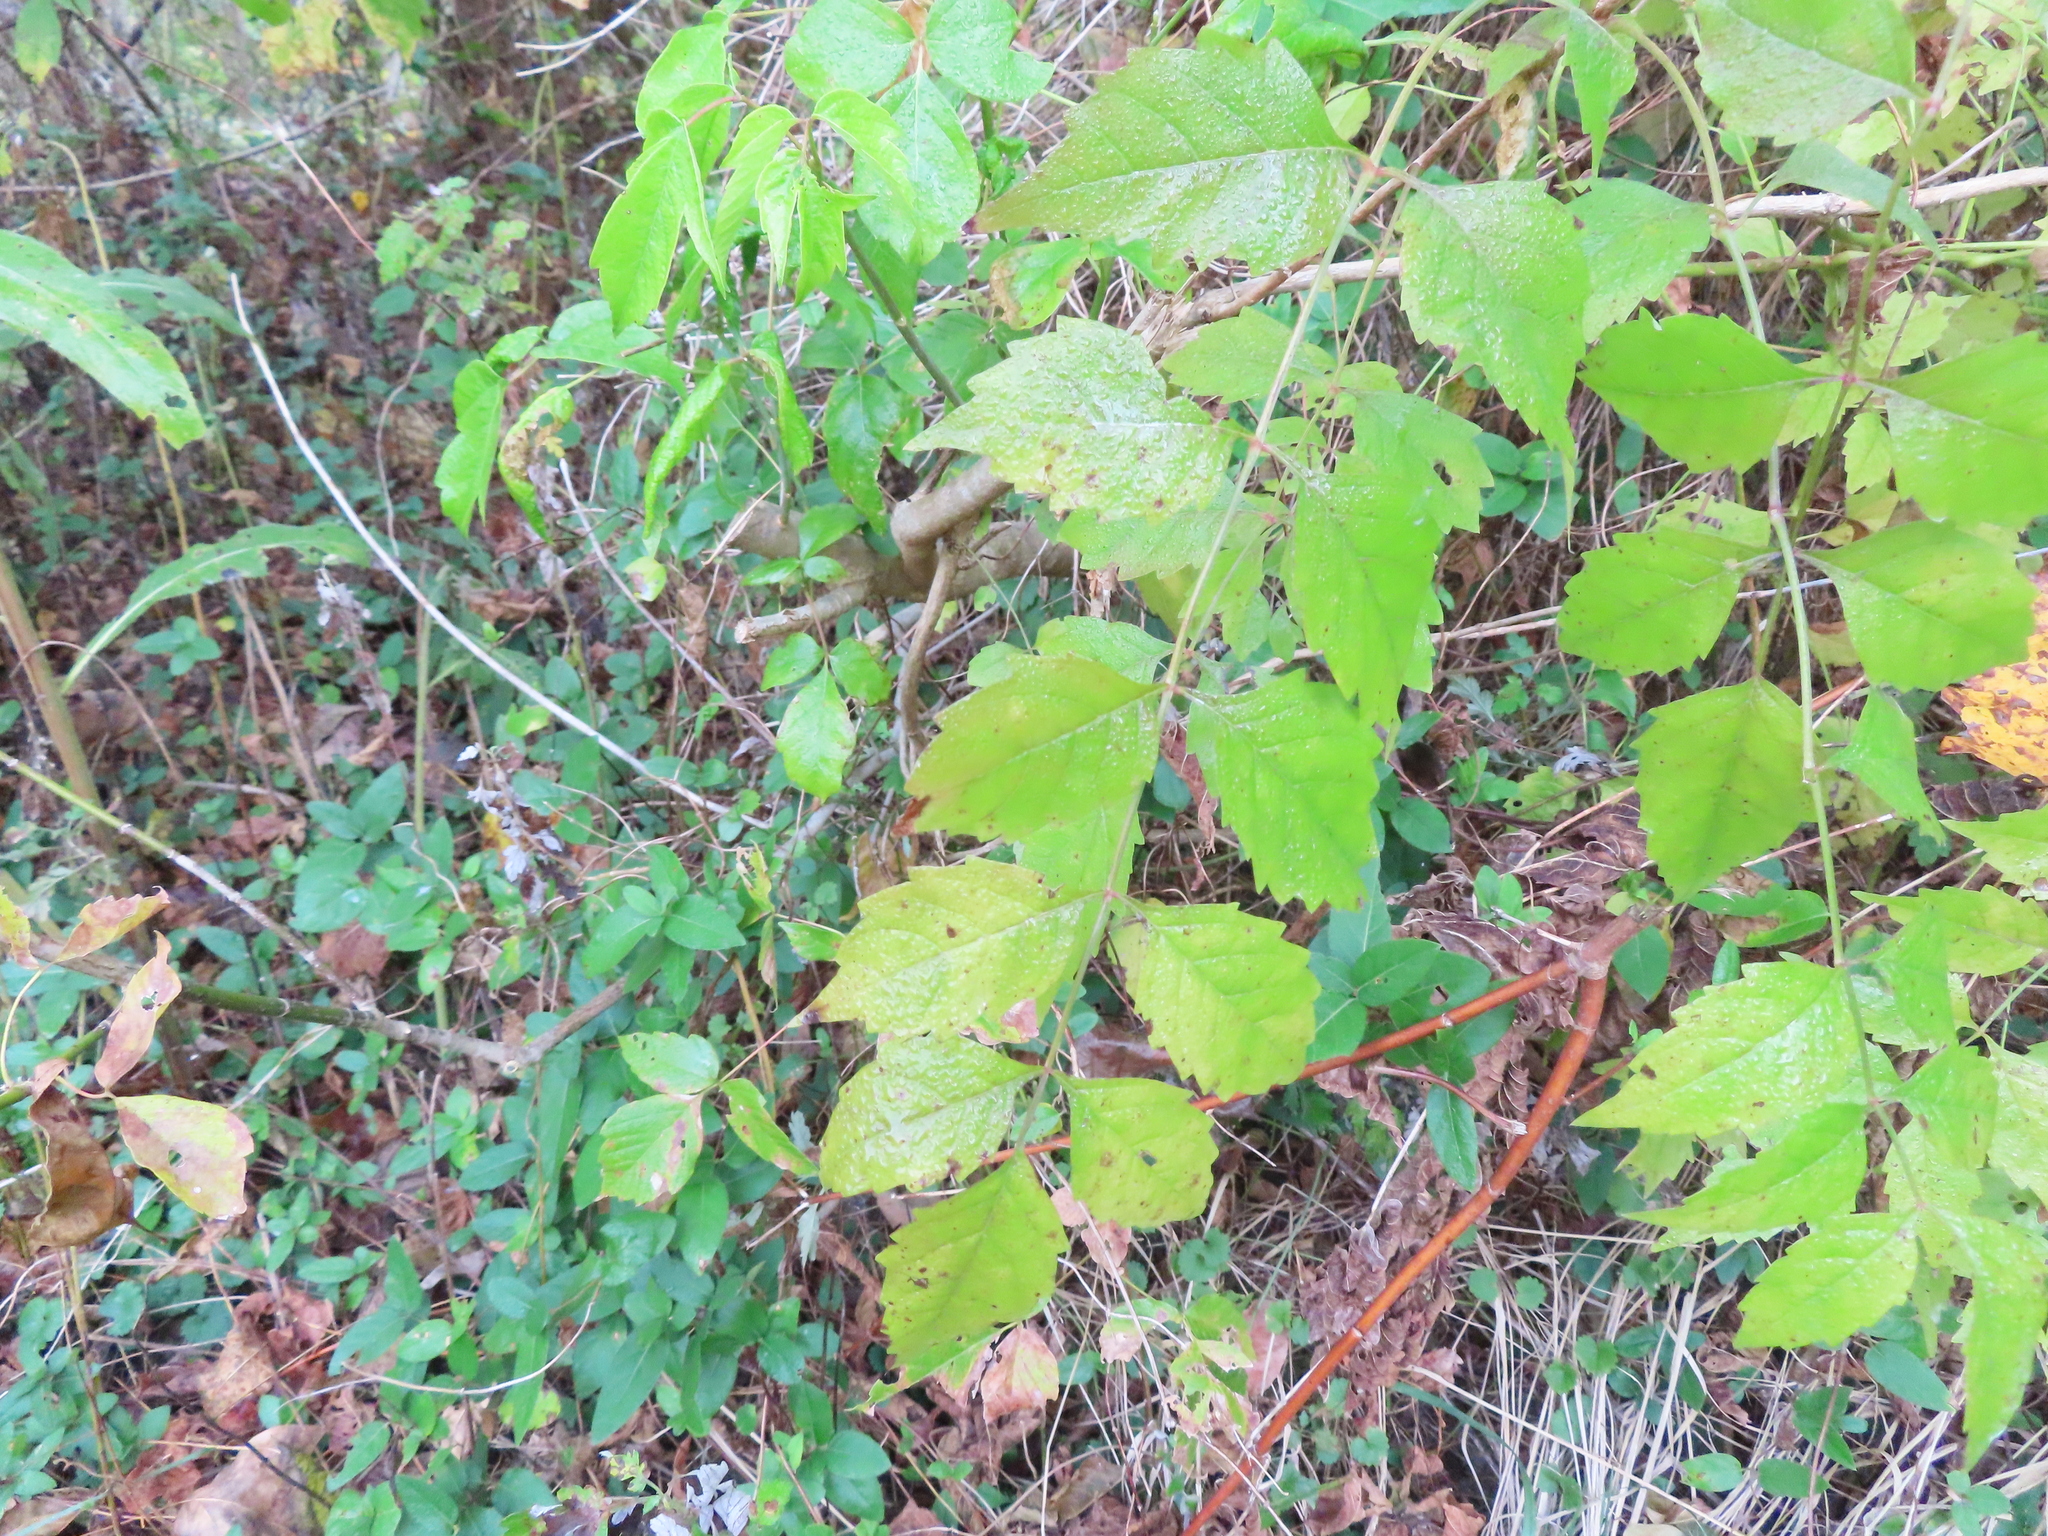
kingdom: Plantae
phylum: Tracheophyta
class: Magnoliopsida
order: Lamiales
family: Bignoniaceae
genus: Campsis
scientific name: Campsis radicans
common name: Trumpet-creeper
